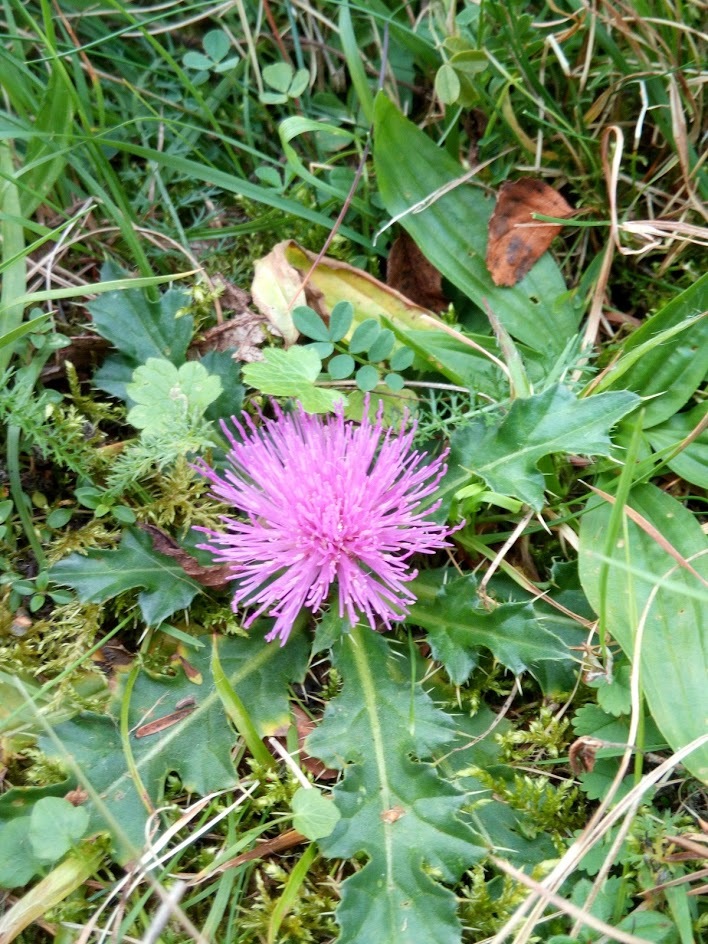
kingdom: Plantae
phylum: Tracheophyta
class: Magnoliopsida
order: Asterales
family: Asteraceae
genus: Cirsium
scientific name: Cirsium acaulon
